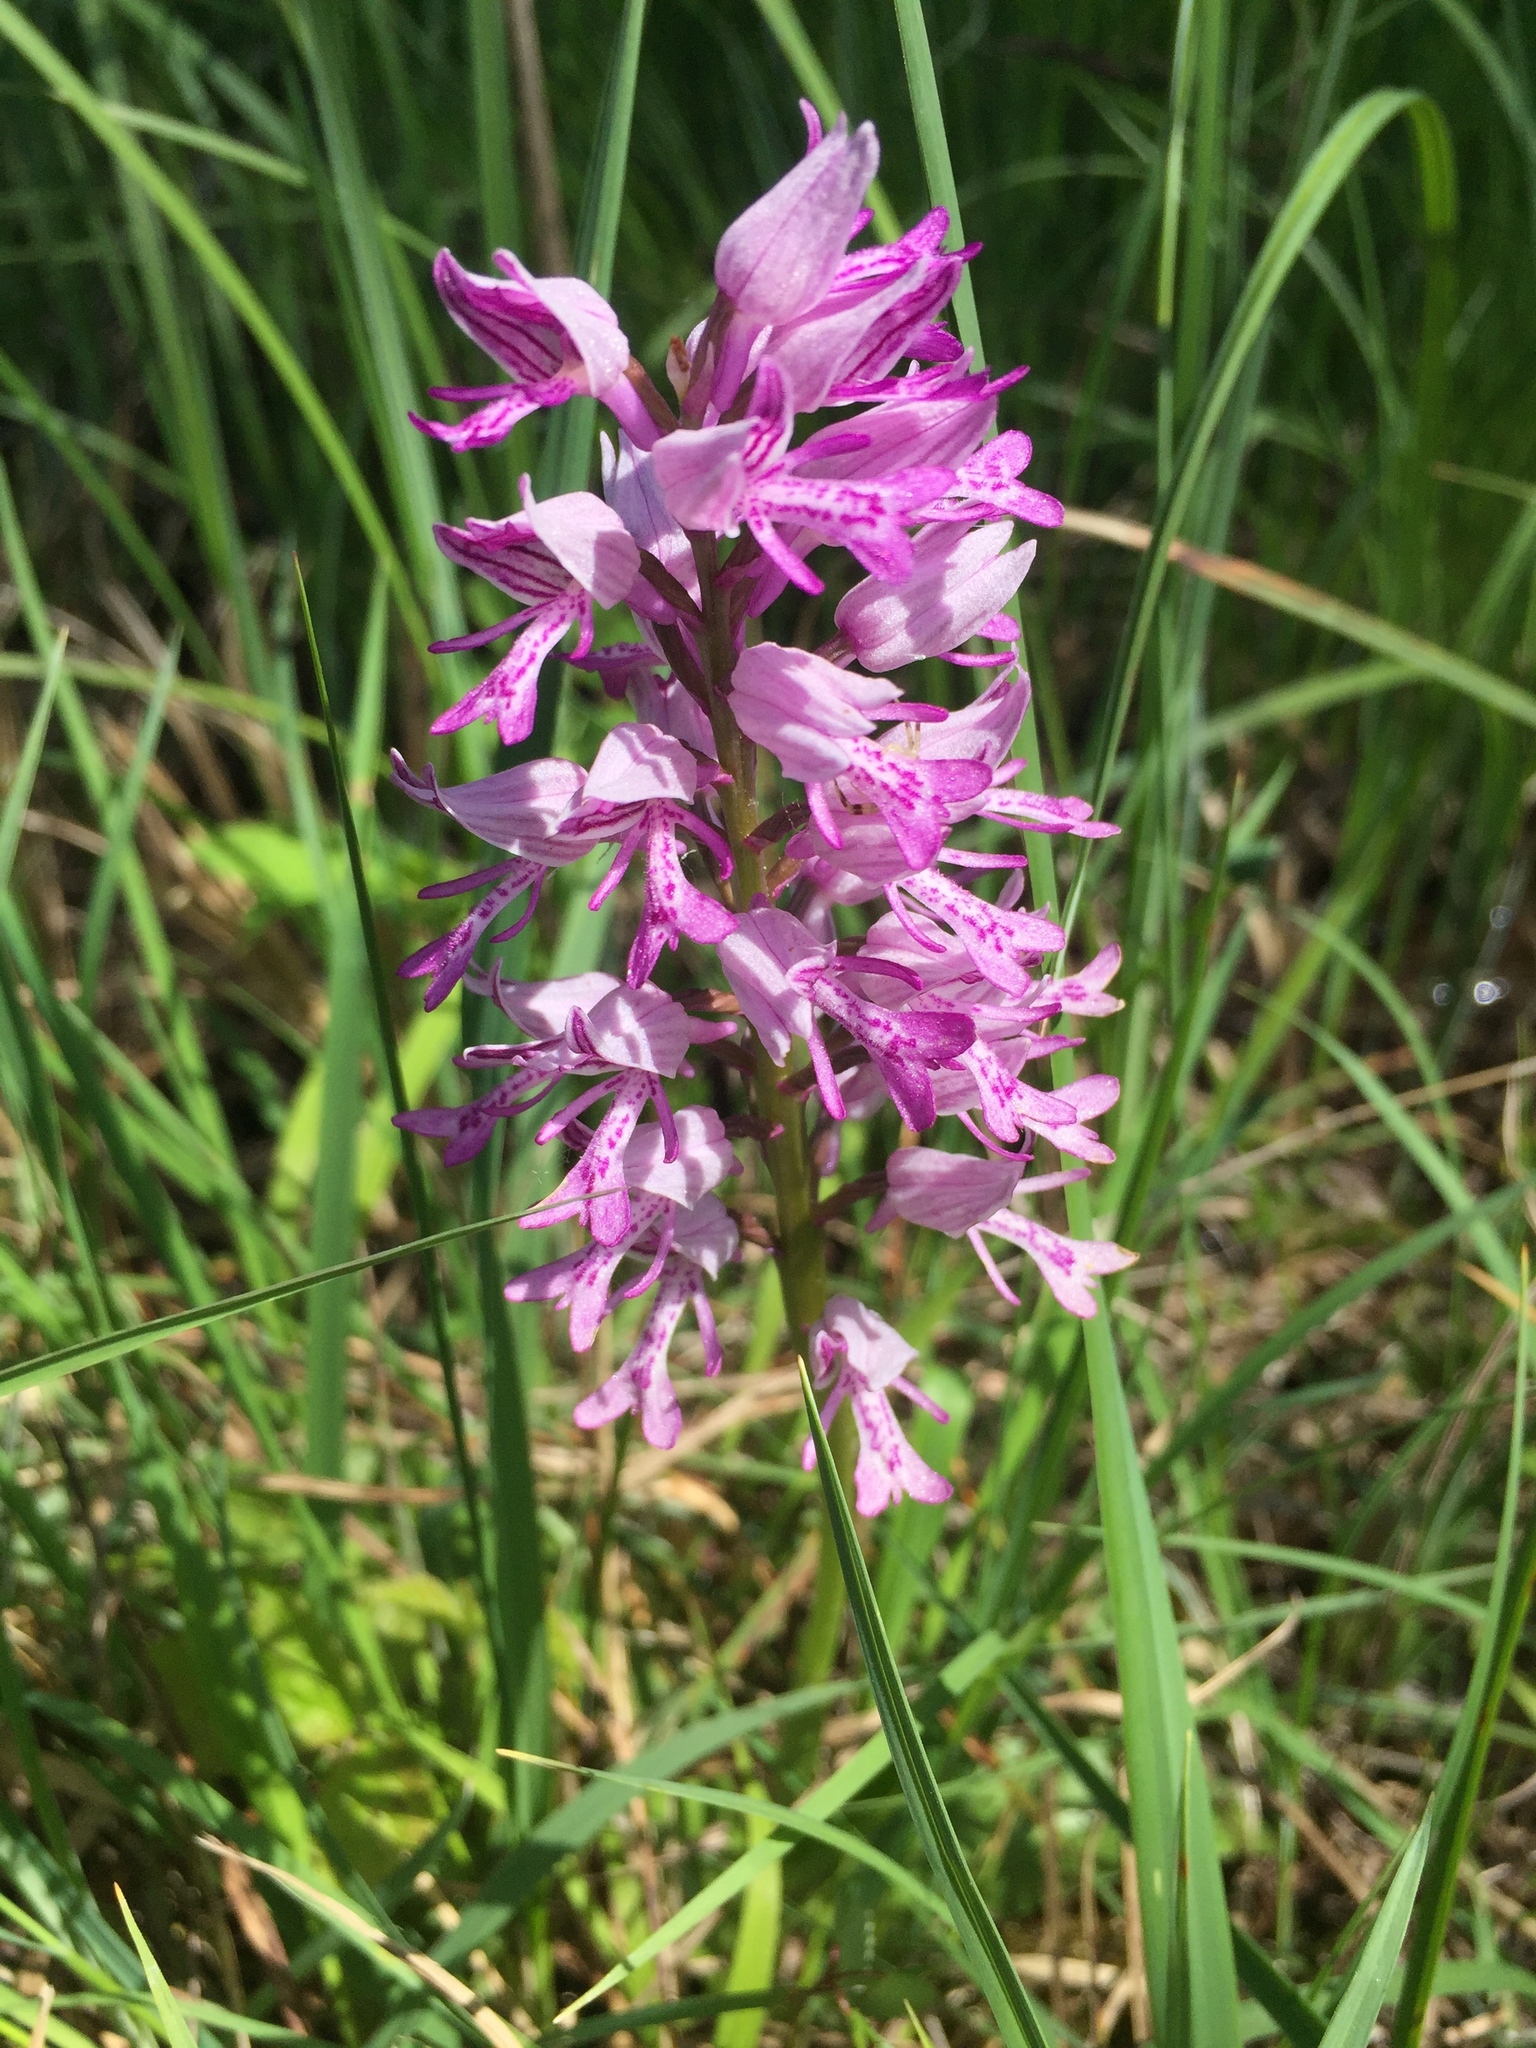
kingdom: Plantae
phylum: Tracheophyta
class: Liliopsida
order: Asparagales
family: Orchidaceae
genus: Orchis
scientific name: Orchis militaris
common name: Military orchid
